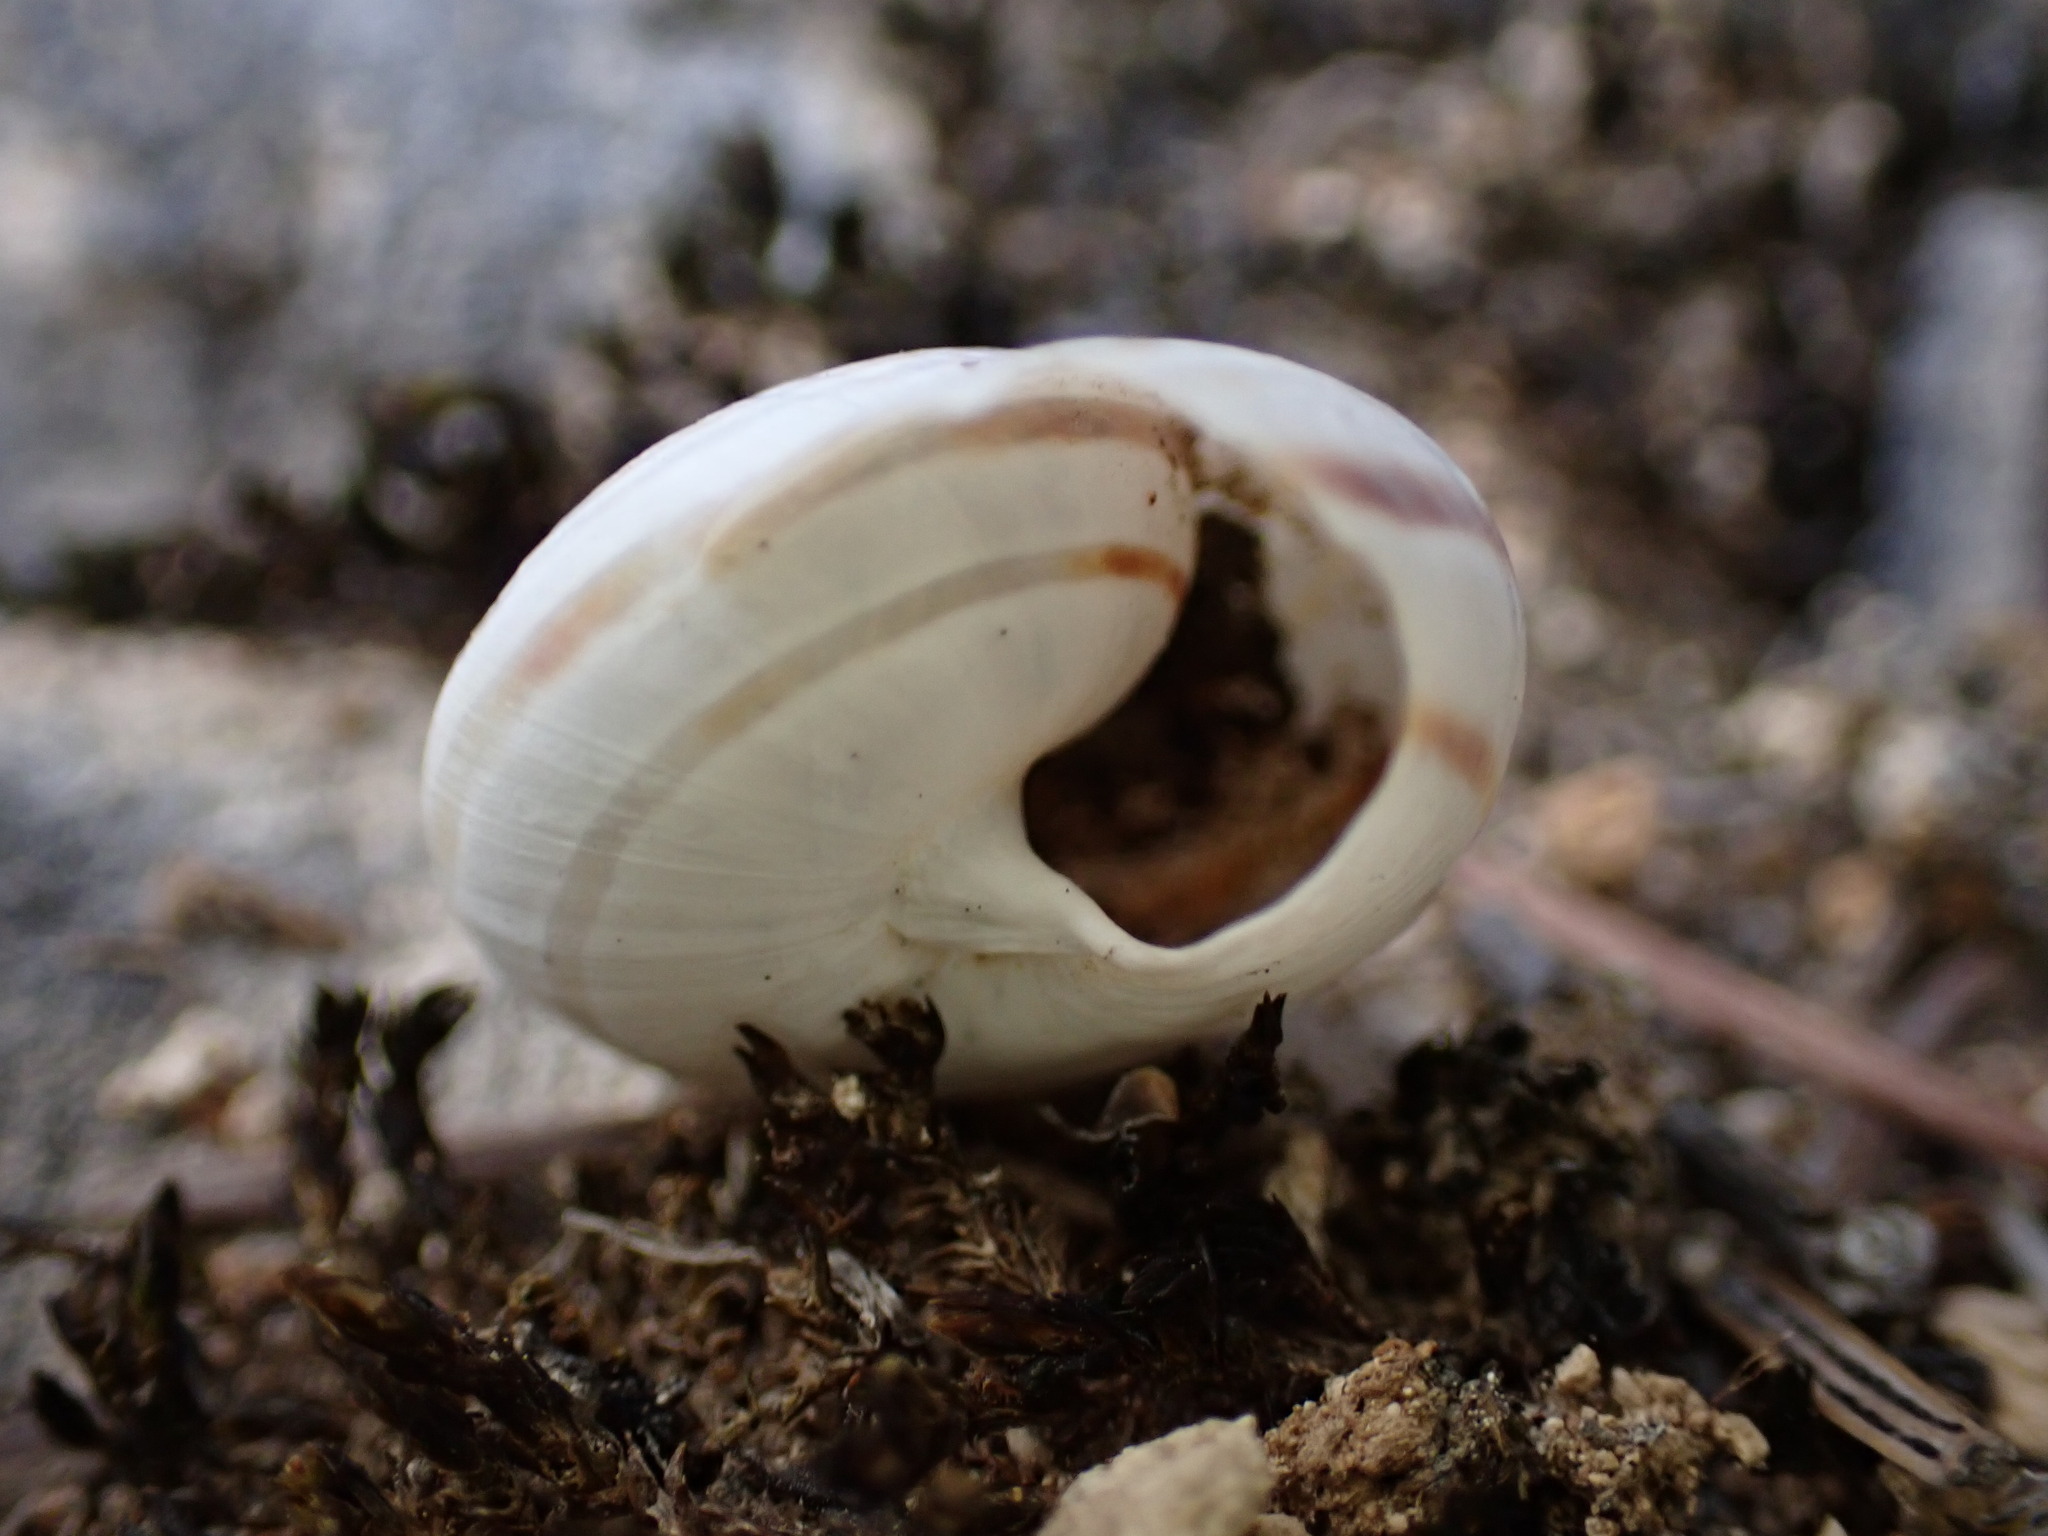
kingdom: Animalia
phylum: Mollusca
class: Gastropoda
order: Stylommatophora
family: Helicidae
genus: Pseudotachea
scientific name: Pseudotachea splendida
